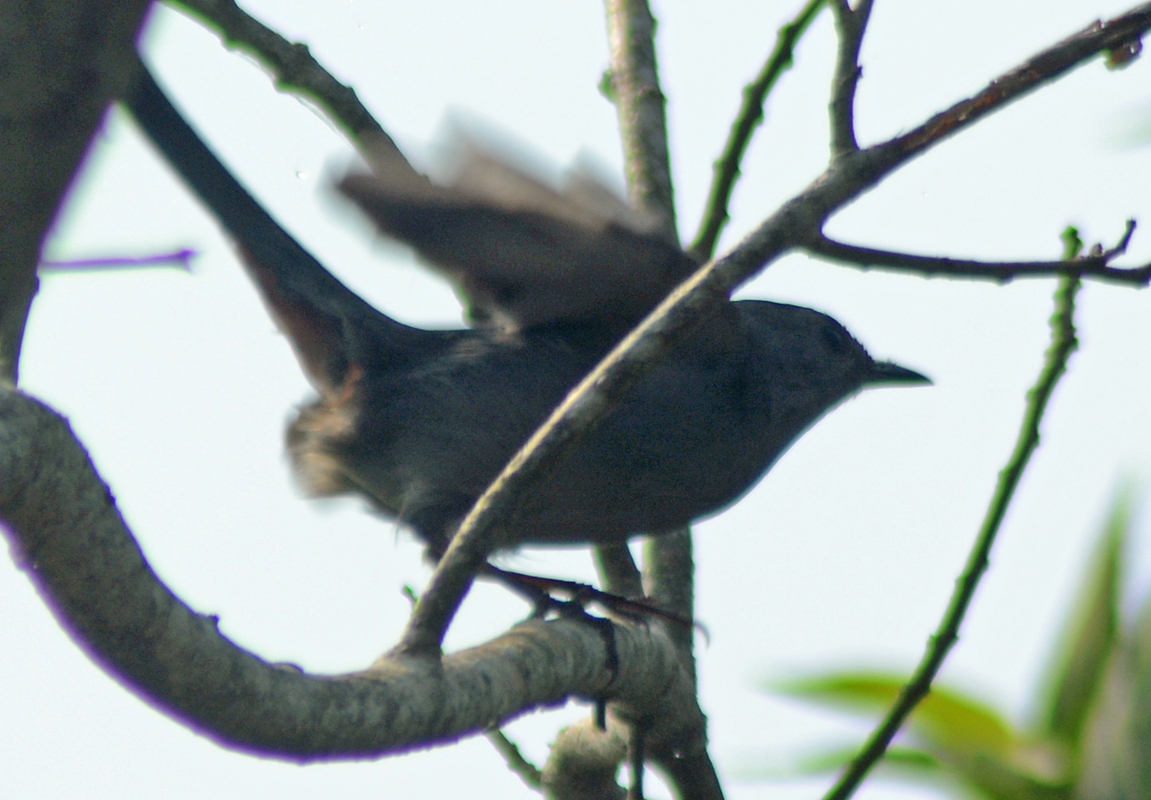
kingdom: Animalia
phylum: Chordata
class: Aves
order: Passeriformes
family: Mimidae
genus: Dumetella
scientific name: Dumetella carolinensis
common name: Gray catbird
